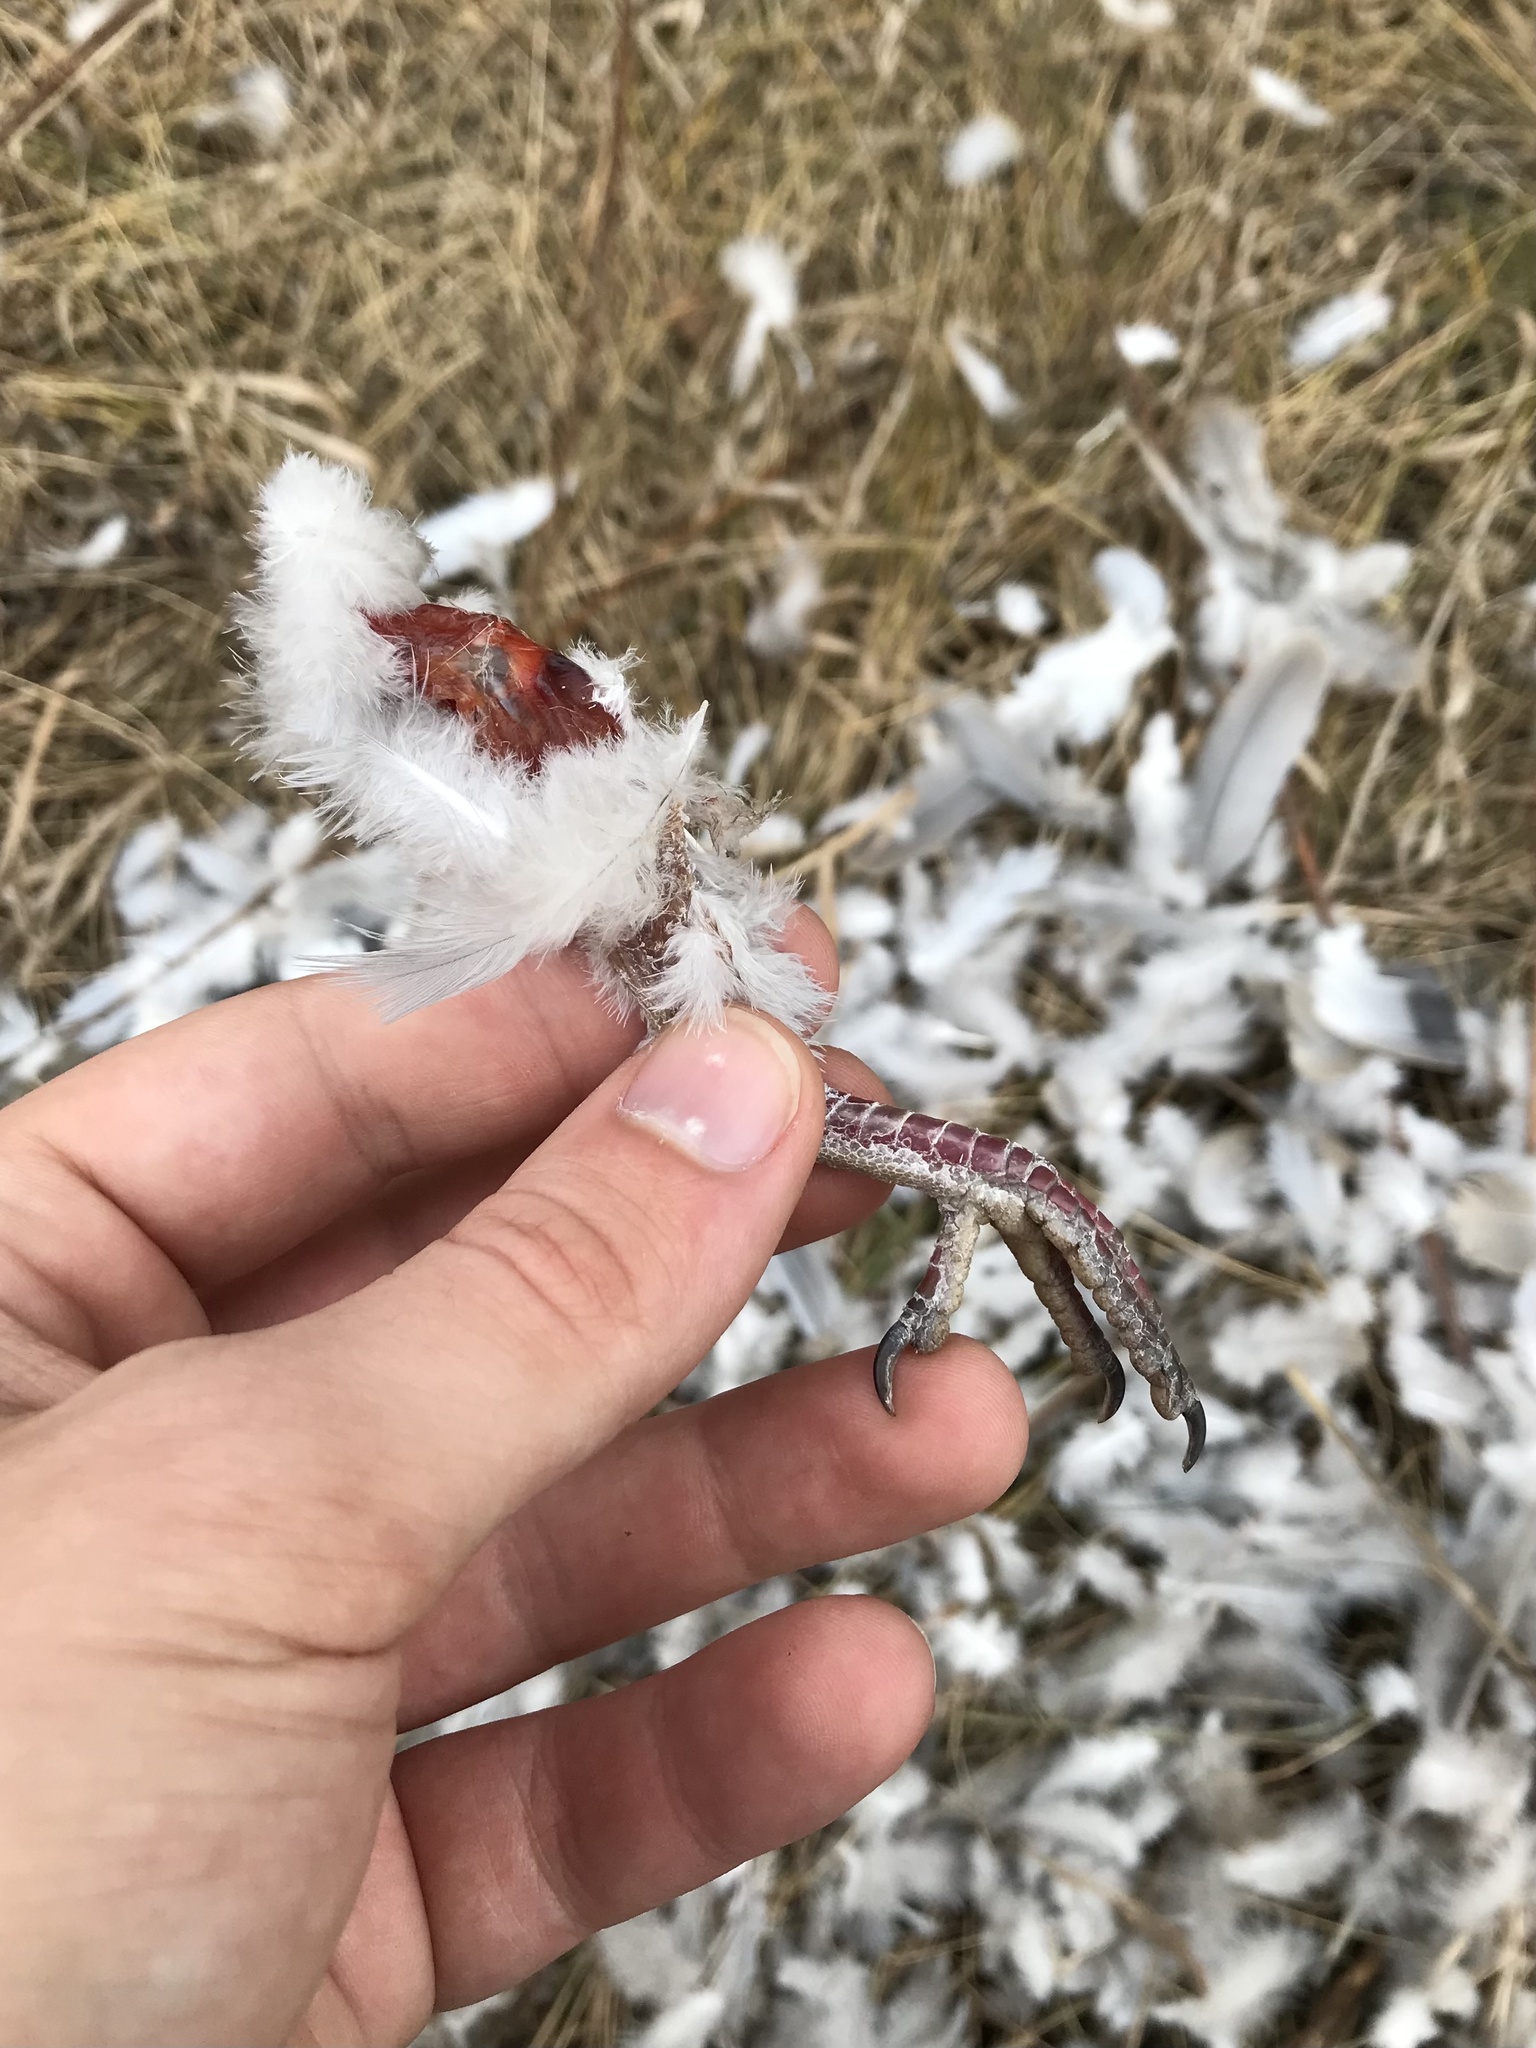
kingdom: Animalia
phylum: Chordata
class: Aves
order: Columbiformes
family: Columbidae
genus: Streptopelia
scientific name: Streptopelia decaocto
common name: Eurasian collared dove
